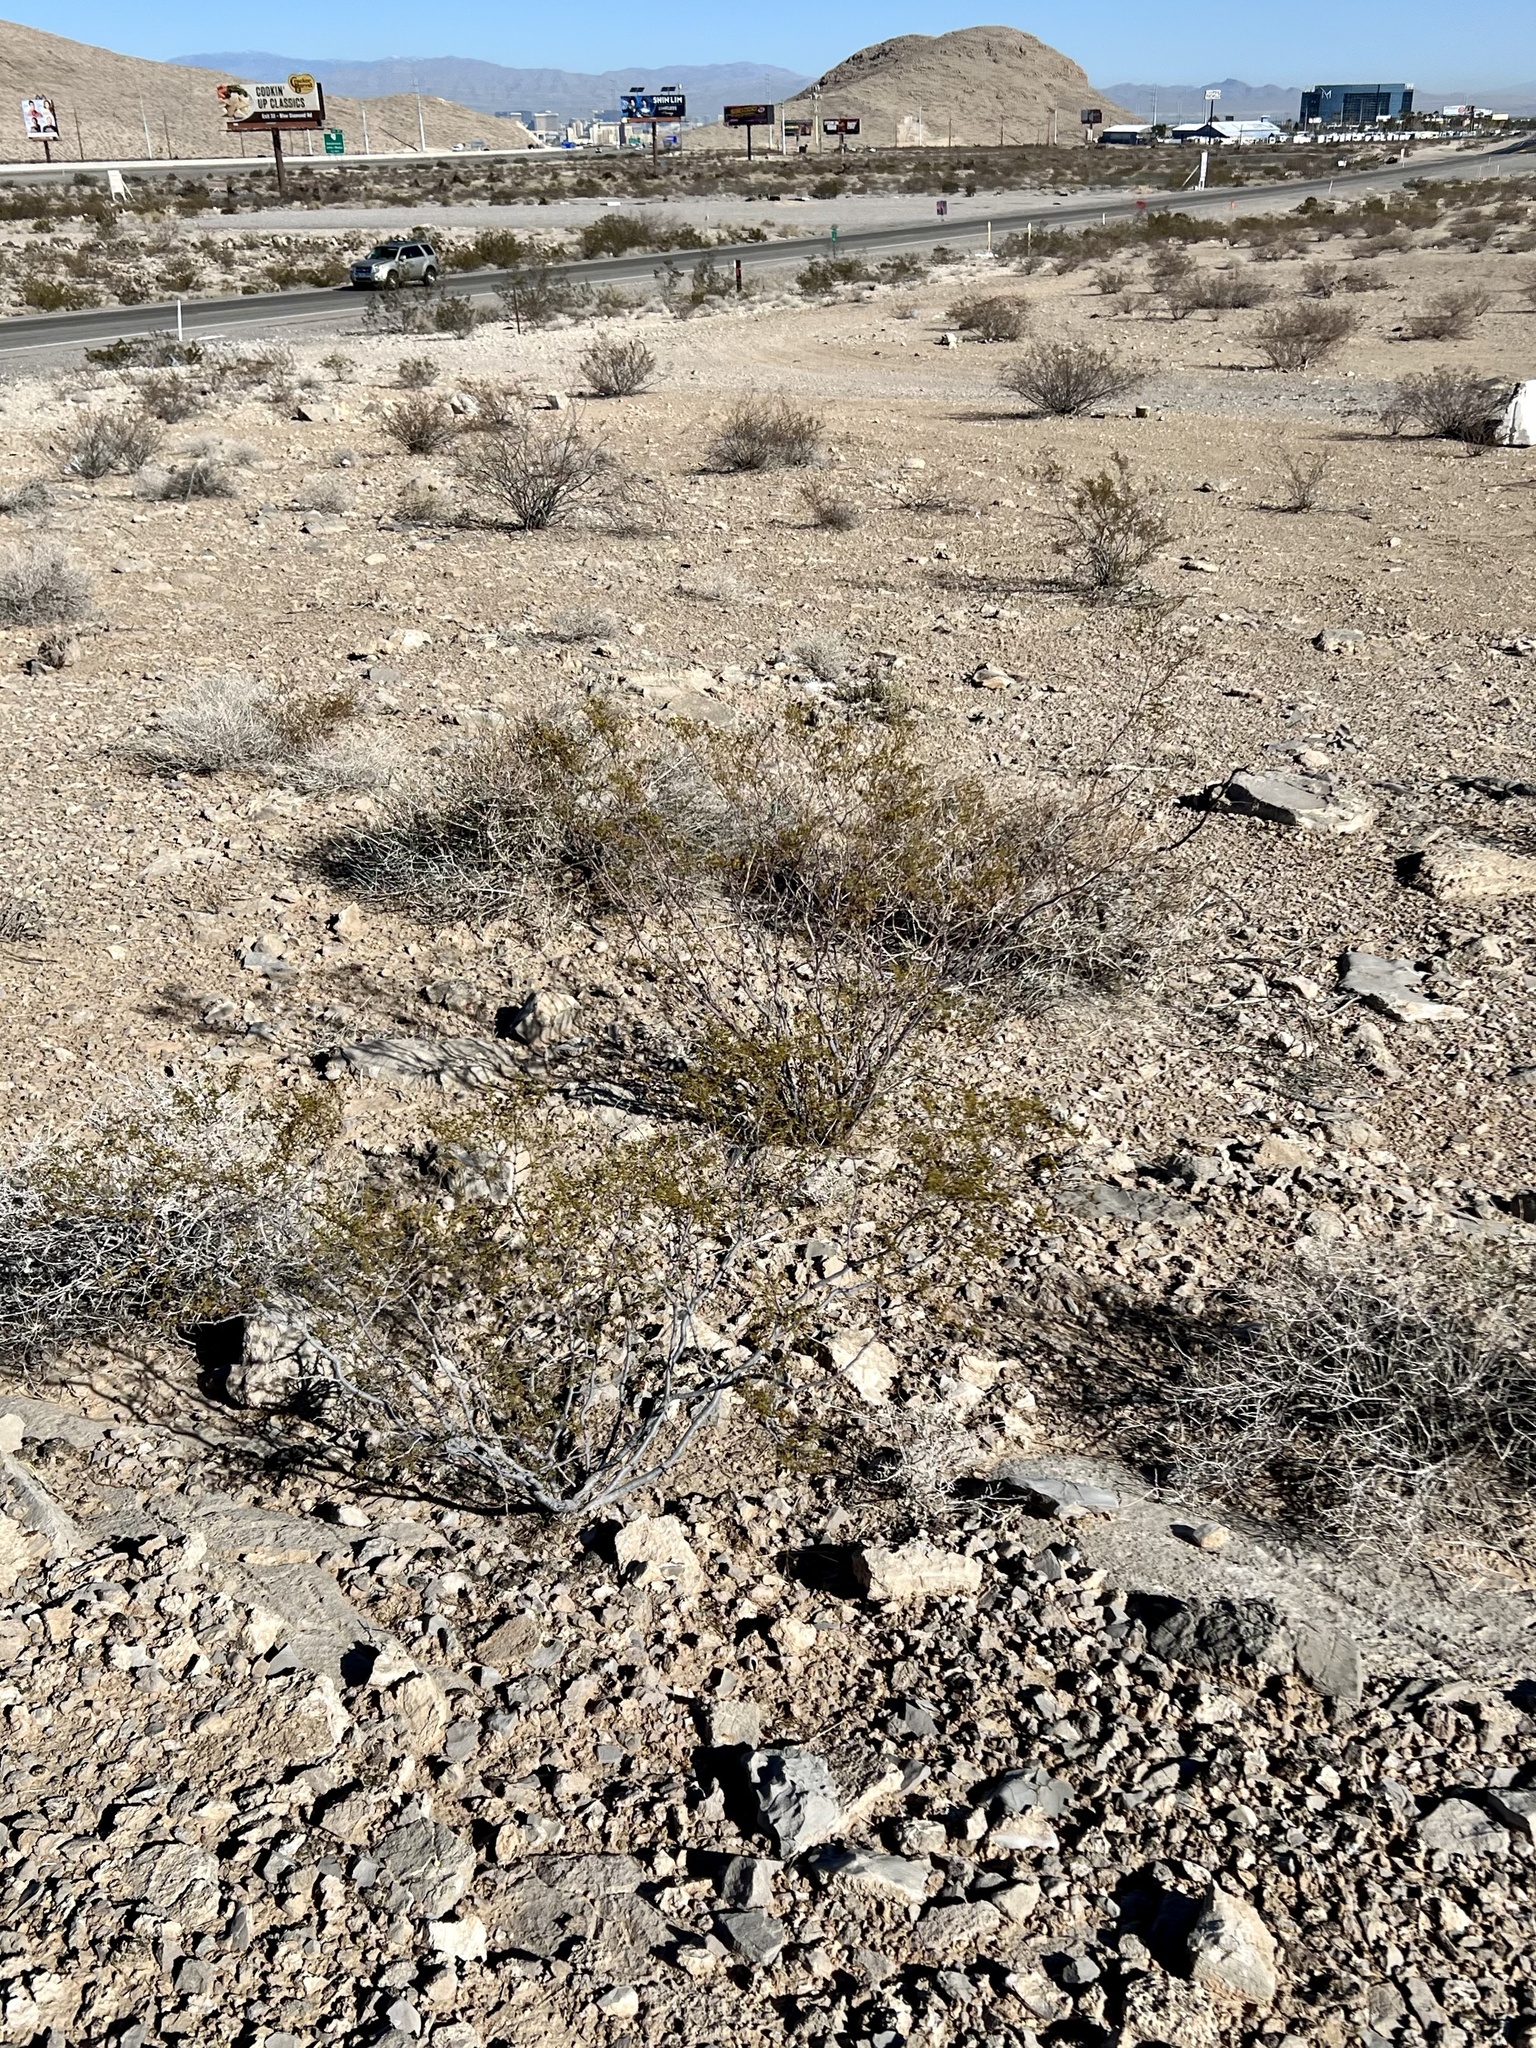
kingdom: Plantae
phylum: Tracheophyta
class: Magnoliopsida
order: Zygophyllales
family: Zygophyllaceae
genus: Larrea
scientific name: Larrea tridentata
